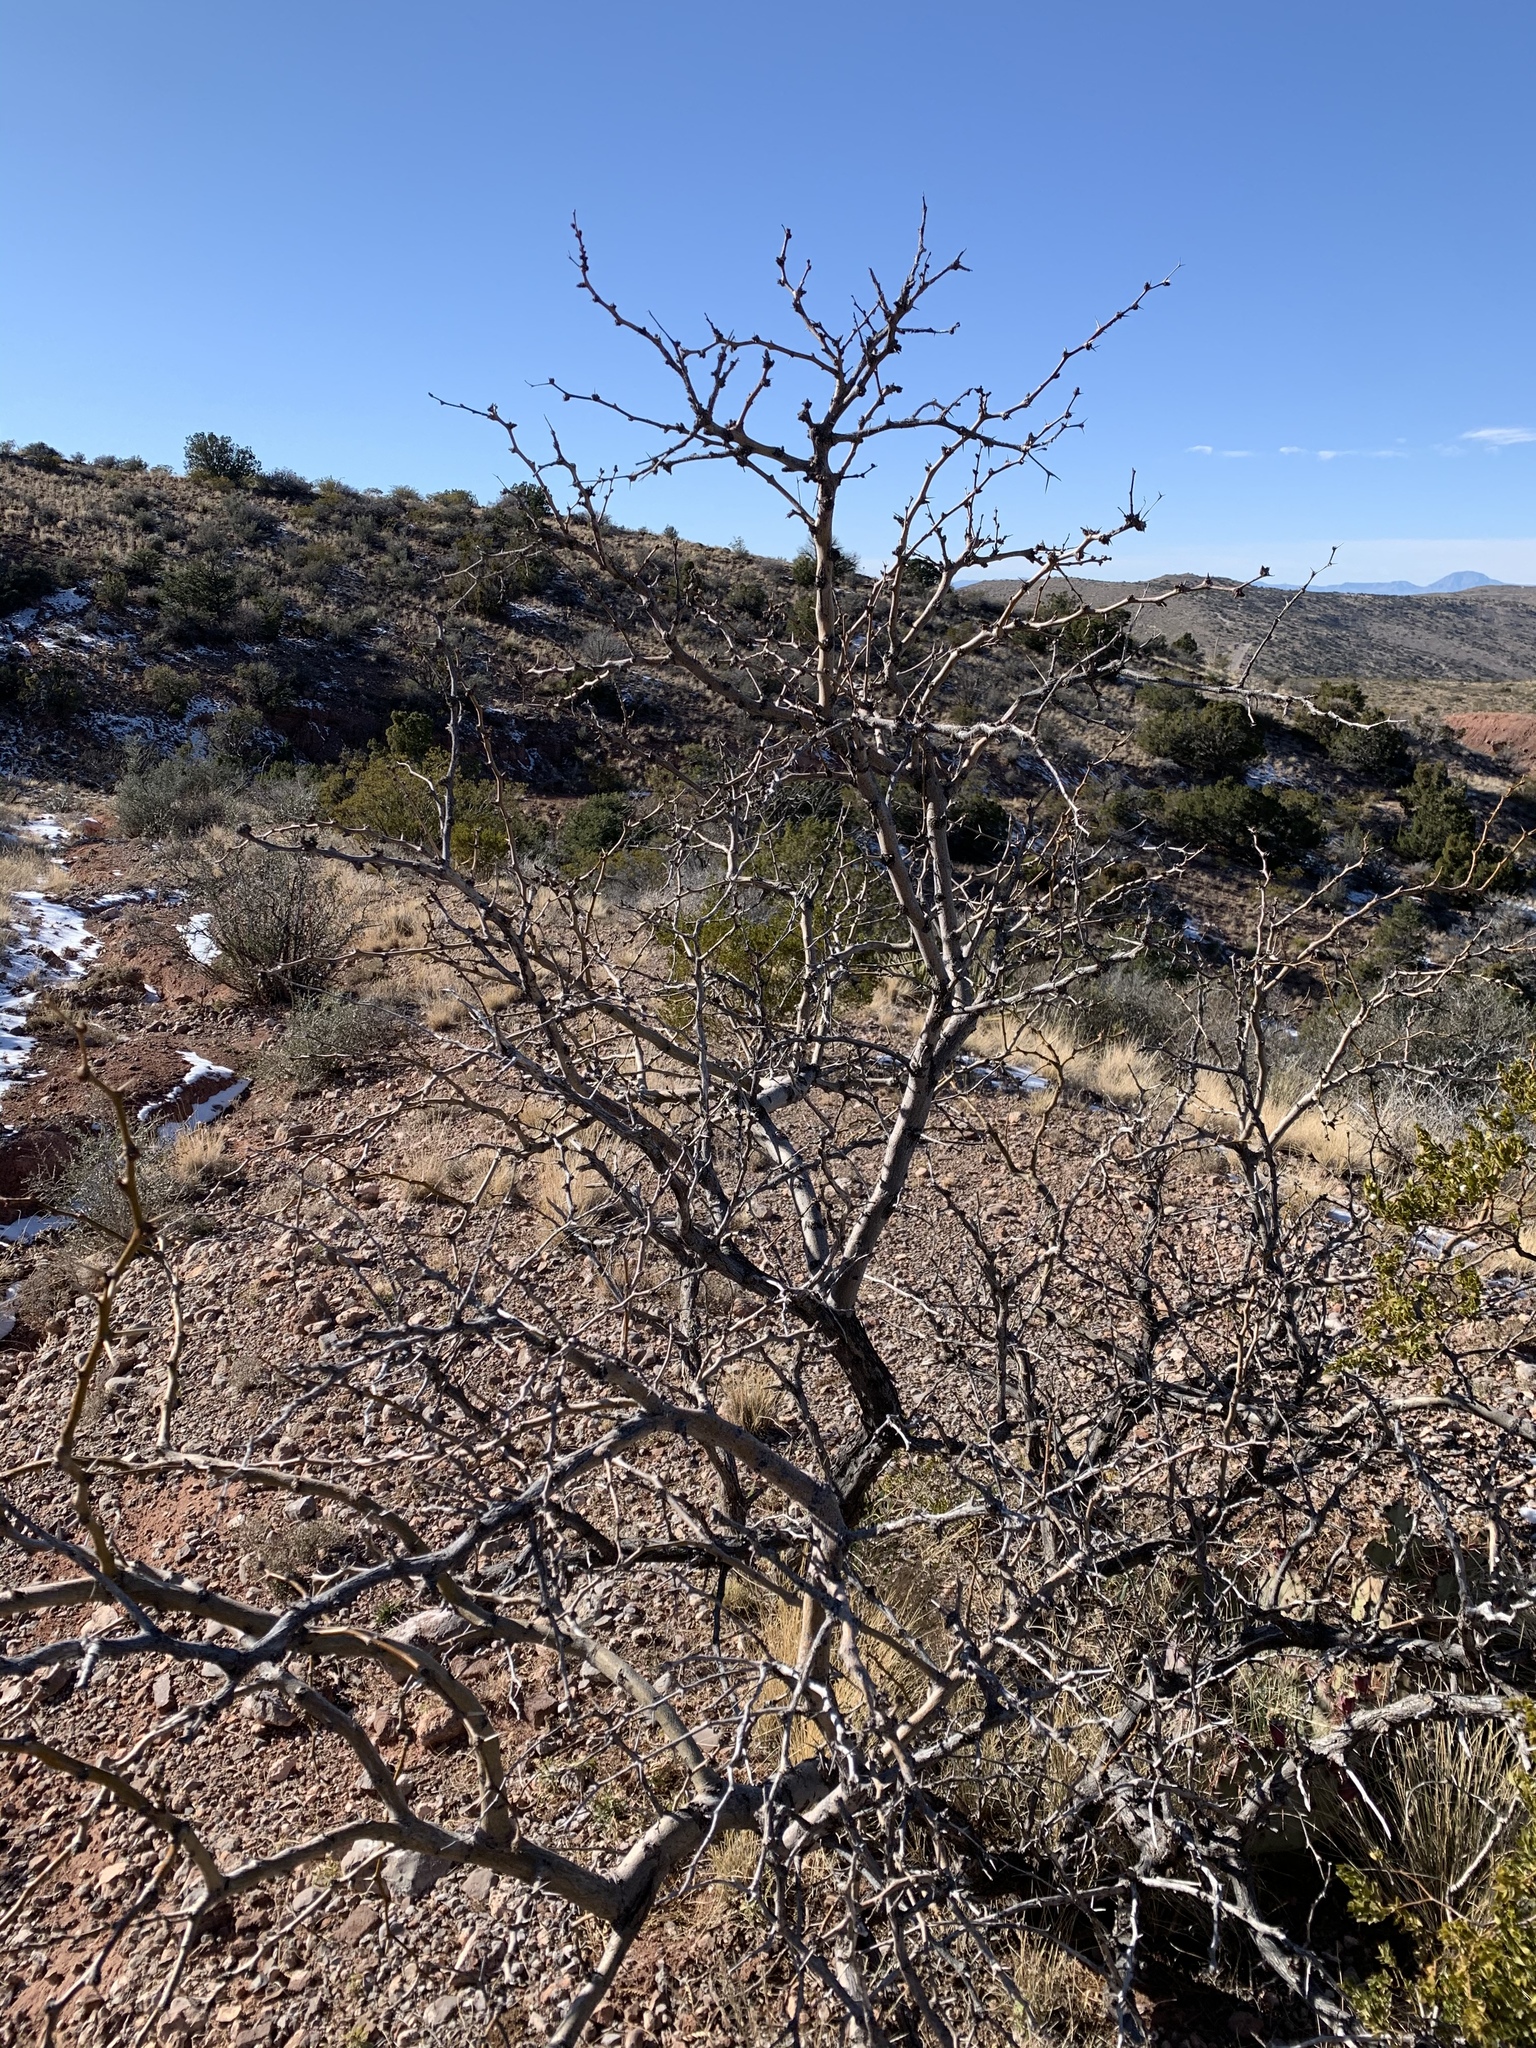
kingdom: Plantae
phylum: Tracheophyta
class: Magnoliopsida
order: Fabales
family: Fabaceae
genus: Prosopis
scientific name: Prosopis glandulosa
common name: Honey mesquite
